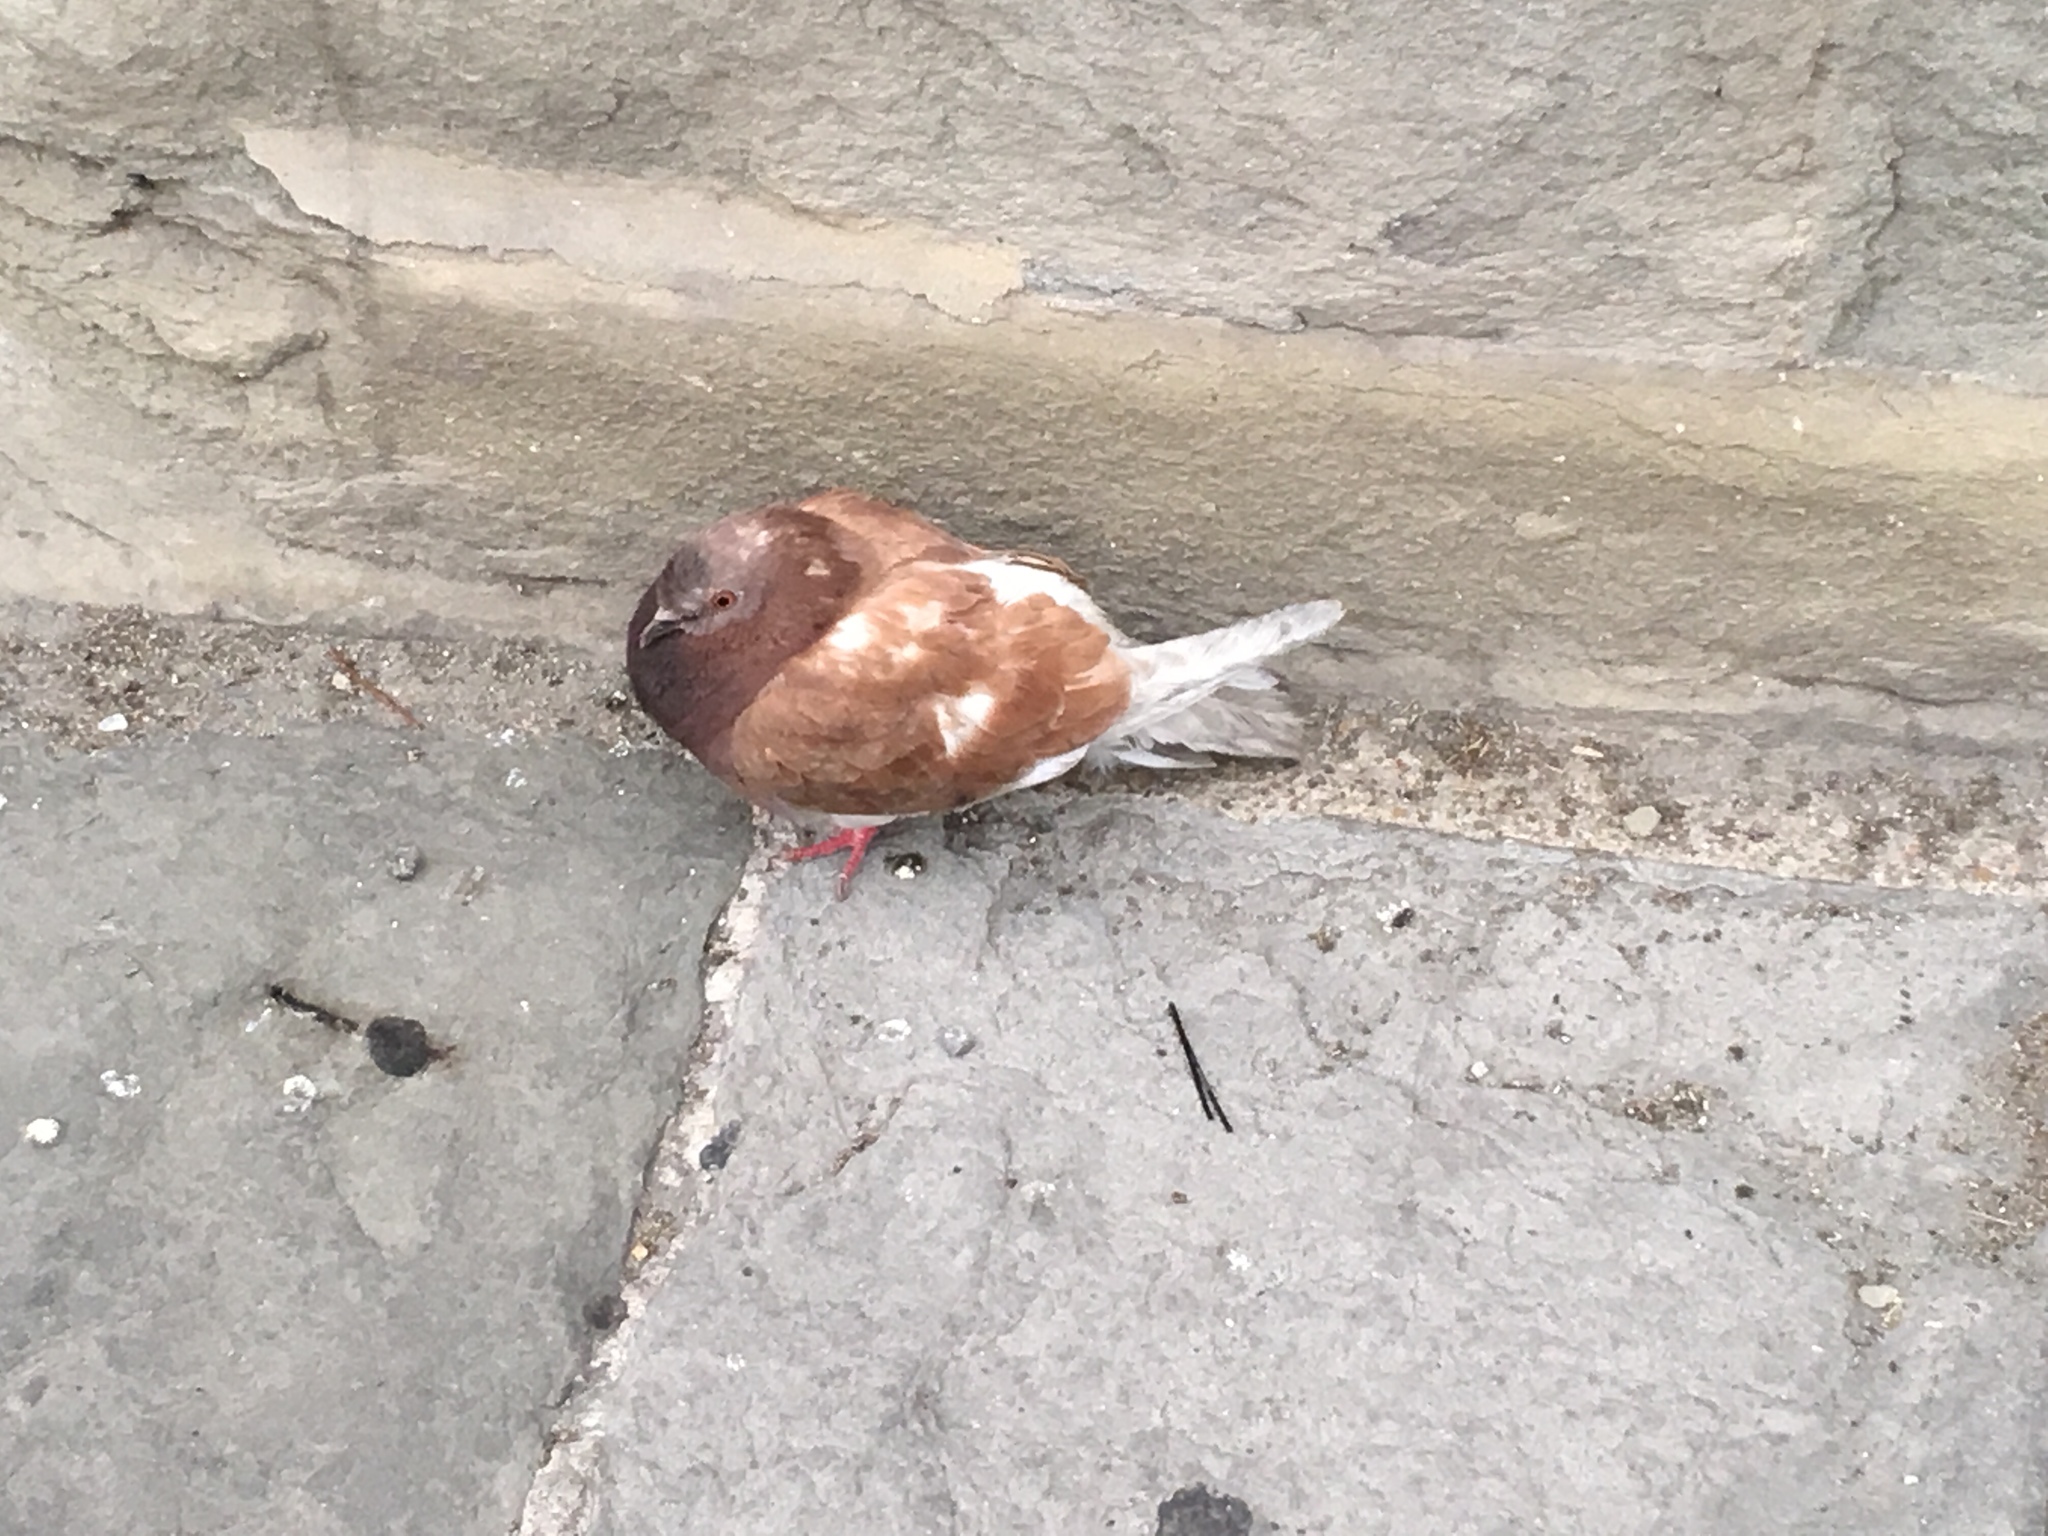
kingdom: Animalia
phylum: Chordata
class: Aves
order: Columbiformes
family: Columbidae
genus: Columba
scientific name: Columba livia
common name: Rock pigeon
